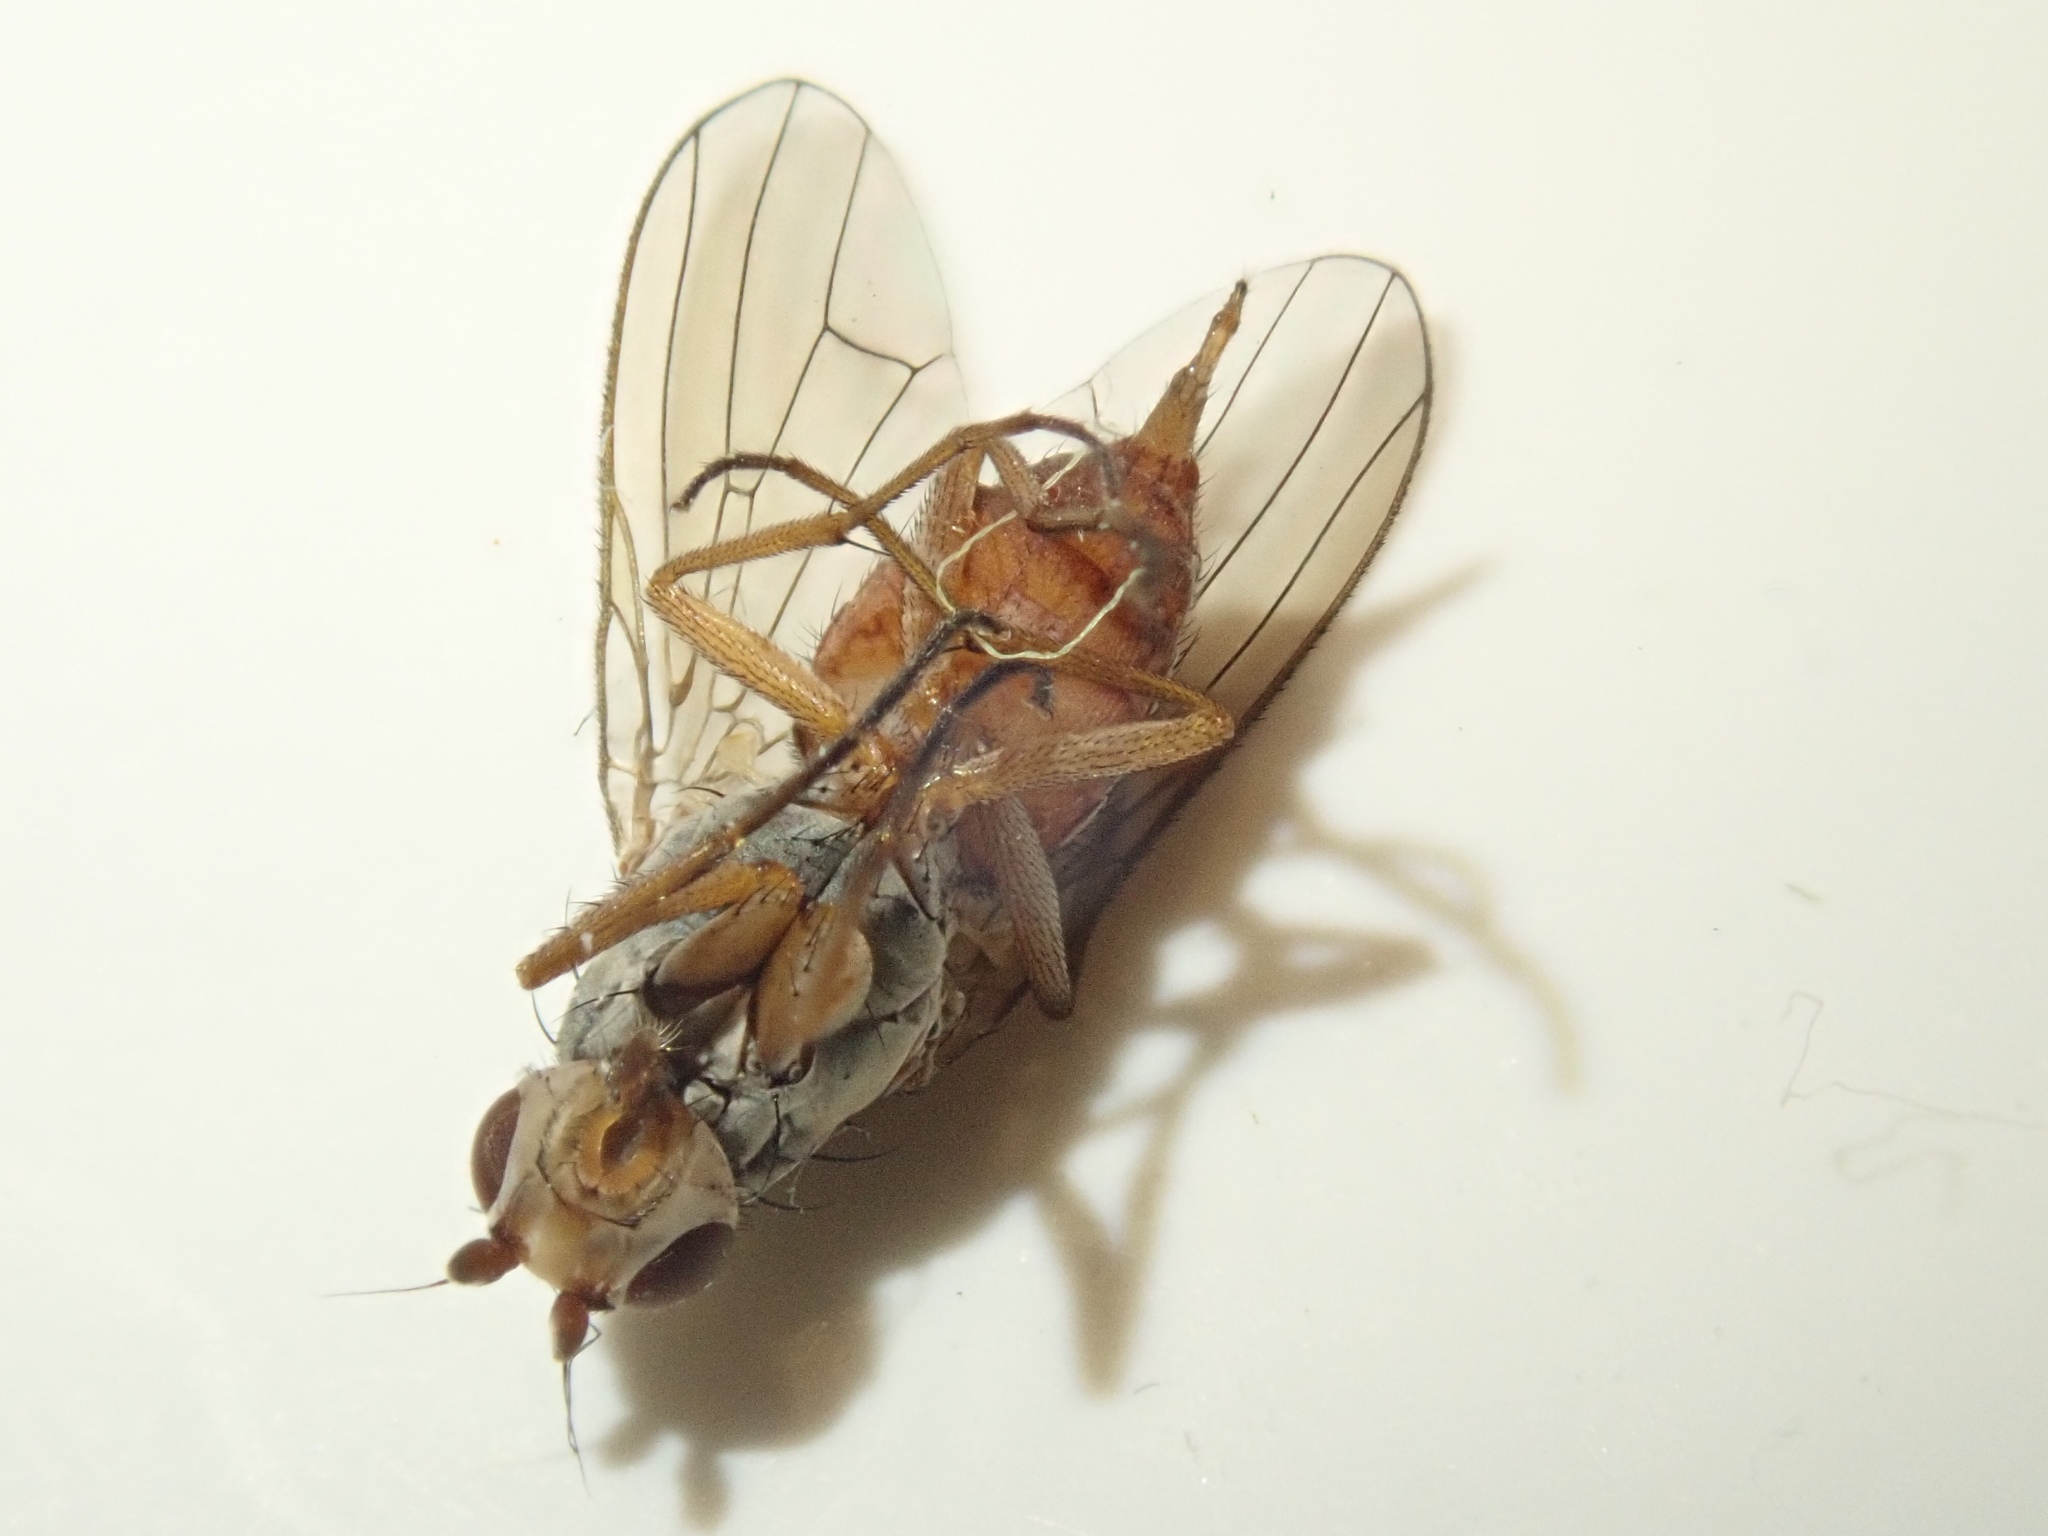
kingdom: Animalia
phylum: Arthropoda
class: Insecta
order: Diptera
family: Heleomyzidae
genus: Tephrochlamys
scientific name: Tephrochlamys rufiventris
